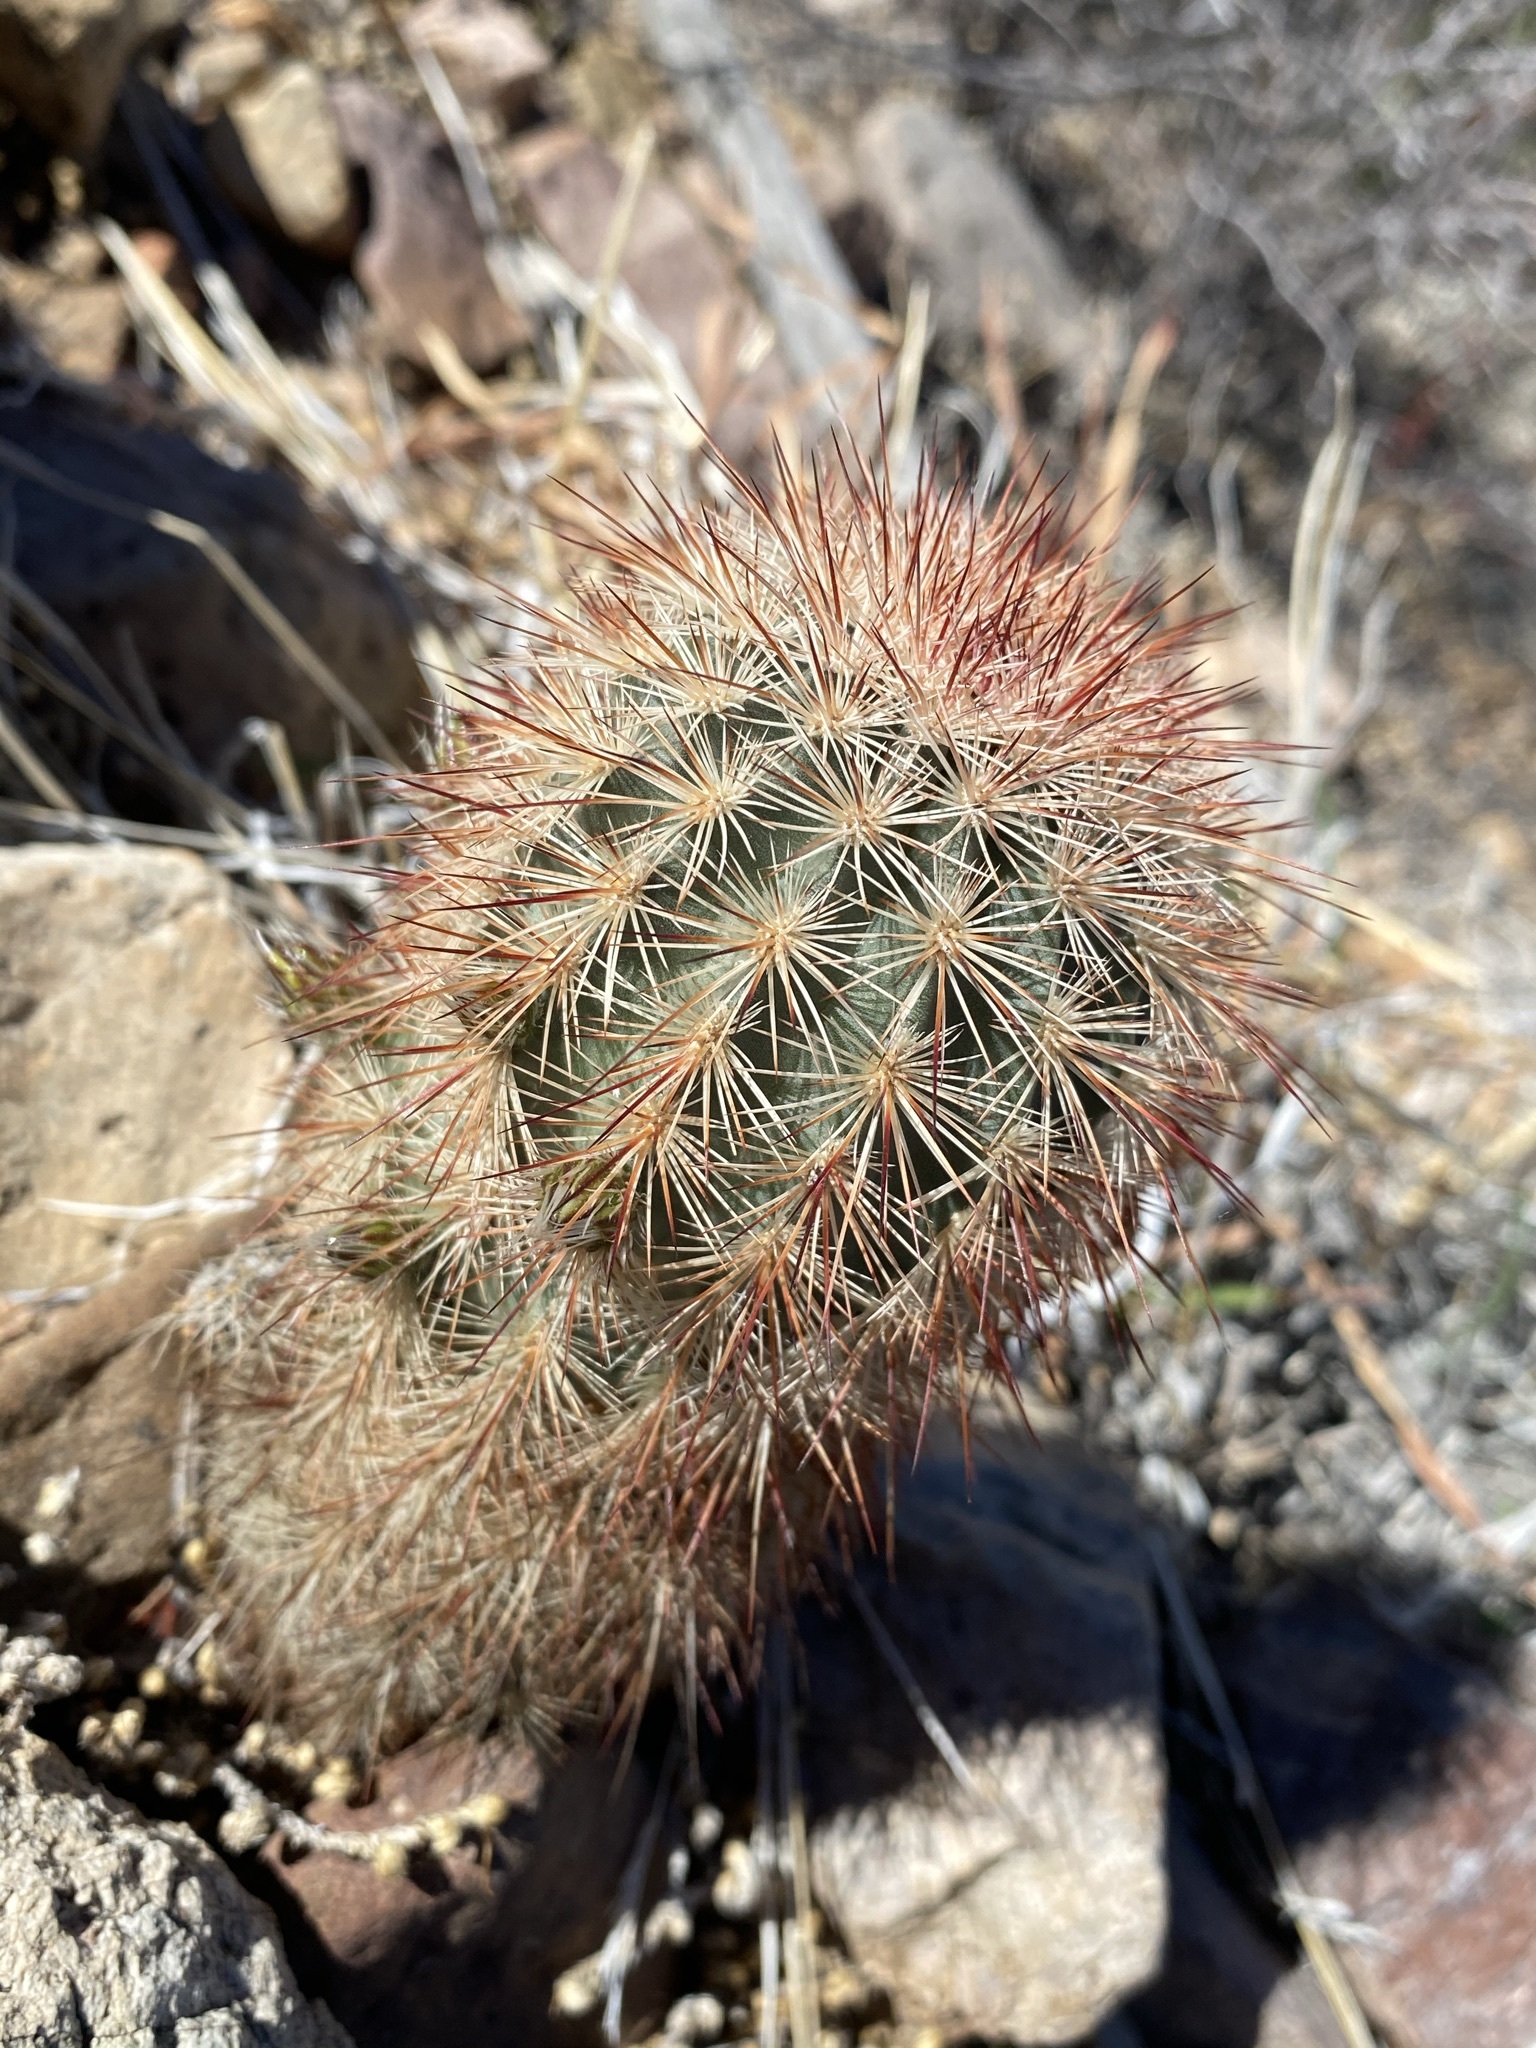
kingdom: Plantae
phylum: Tracheophyta
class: Magnoliopsida
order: Caryophyllales
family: Cactaceae
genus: Echinocereus
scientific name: Echinocereus russanthus
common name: Brownspine hedgehog cactus
